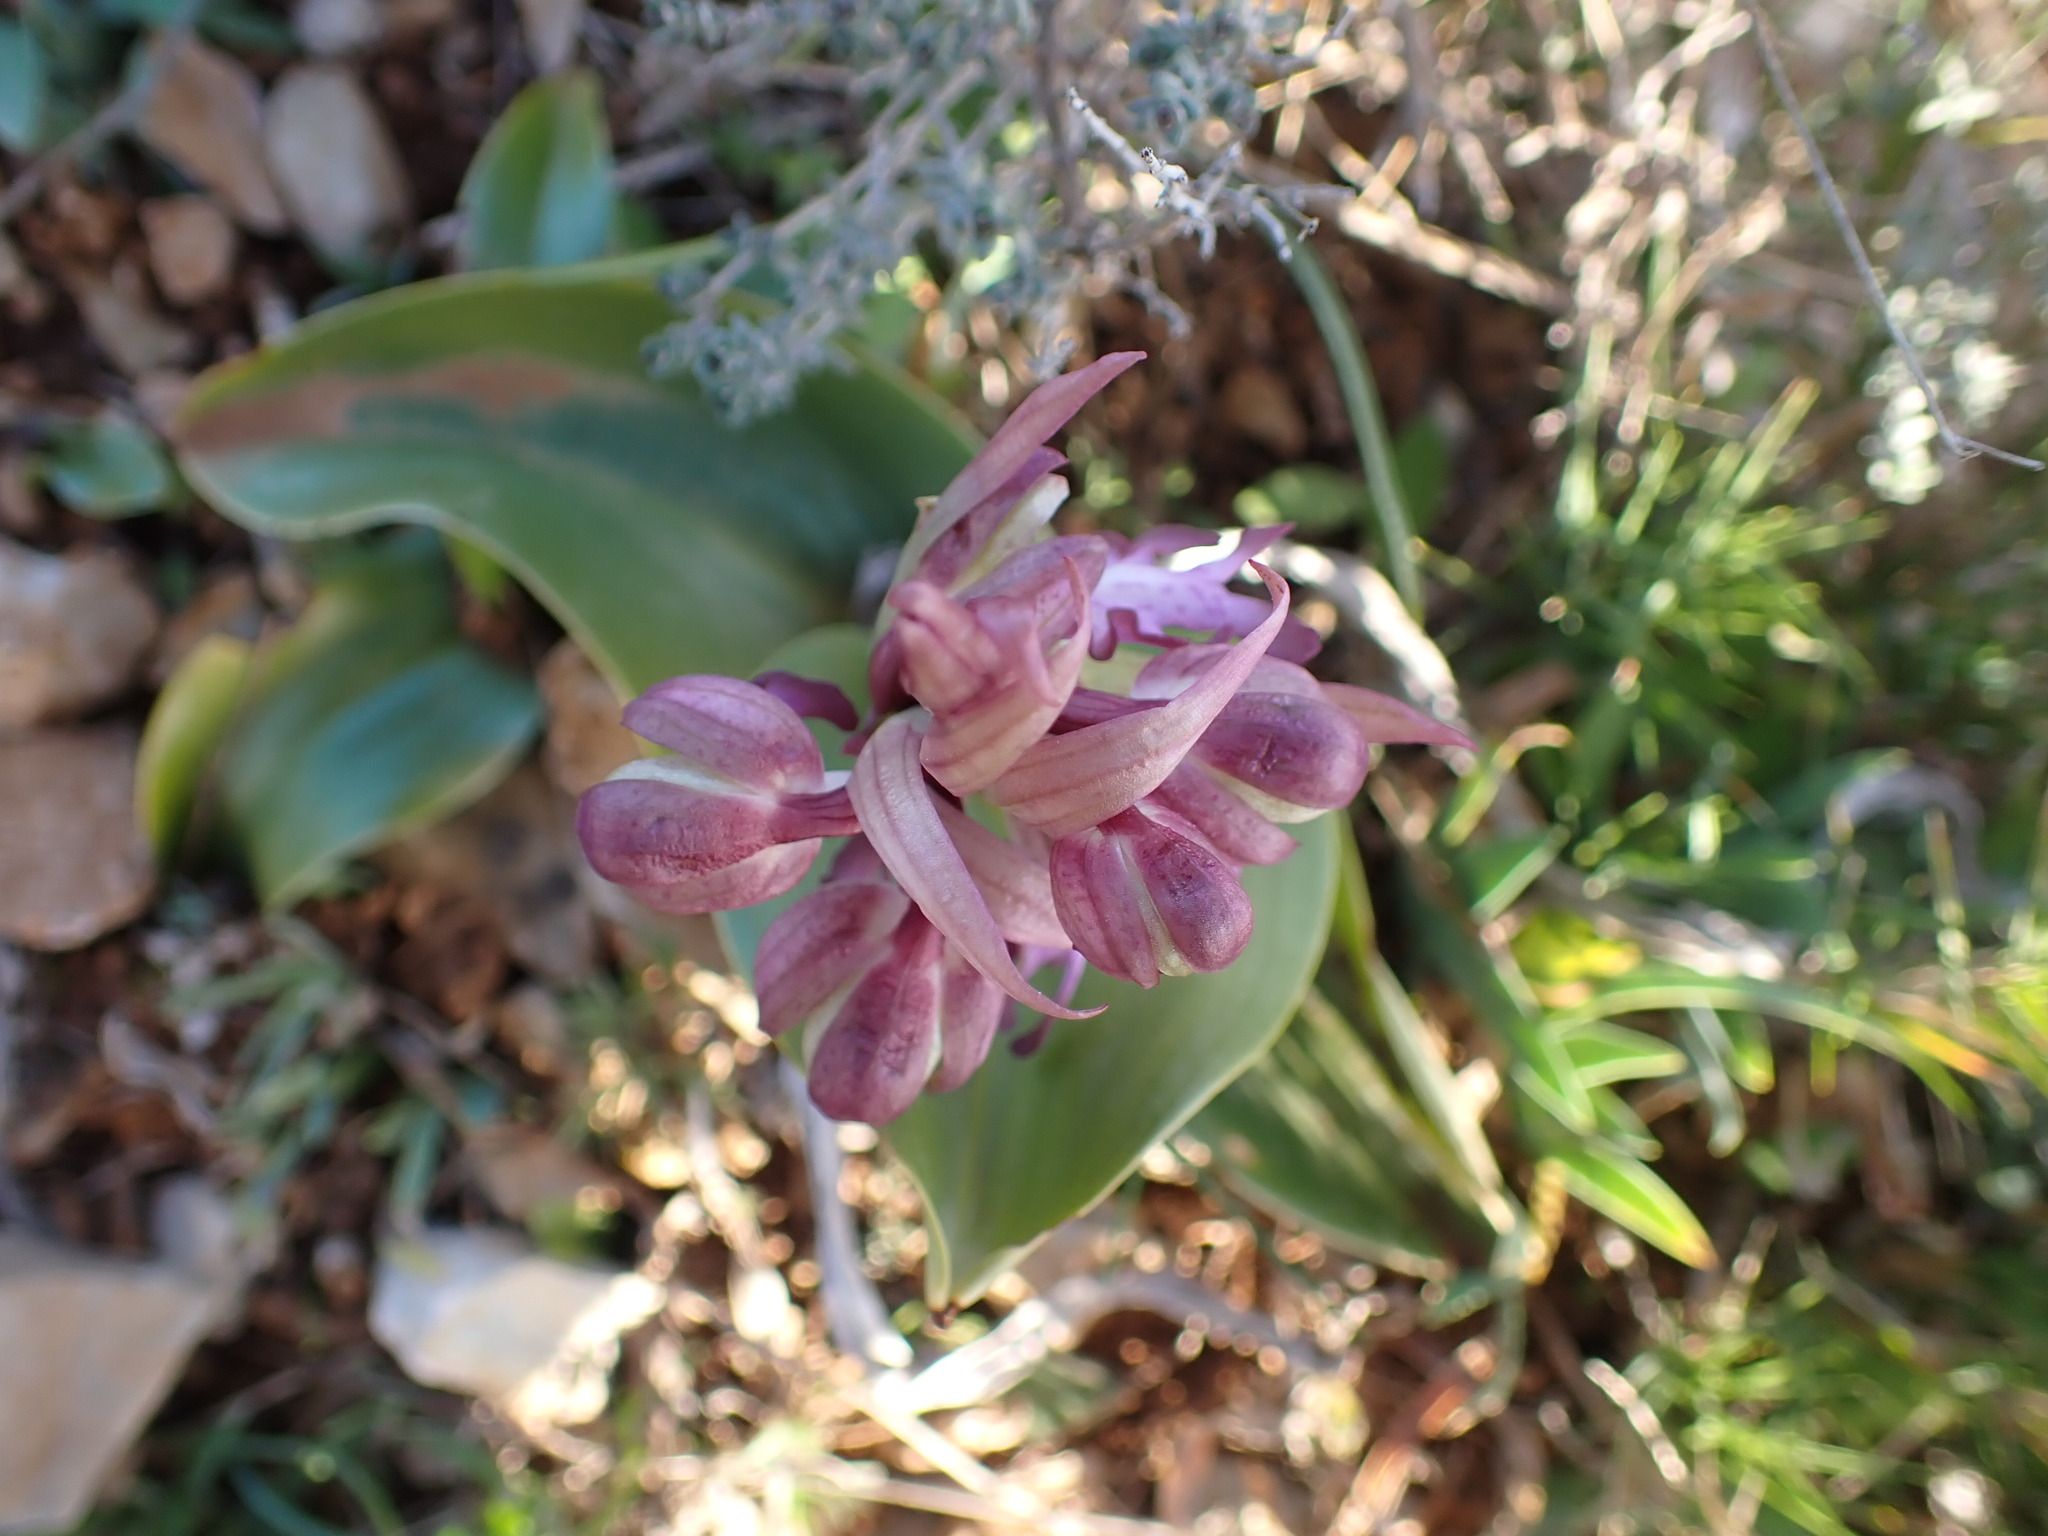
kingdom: Plantae
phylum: Tracheophyta
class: Liliopsida
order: Asparagales
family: Orchidaceae
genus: Himantoglossum
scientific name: Himantoglossum robertianum
